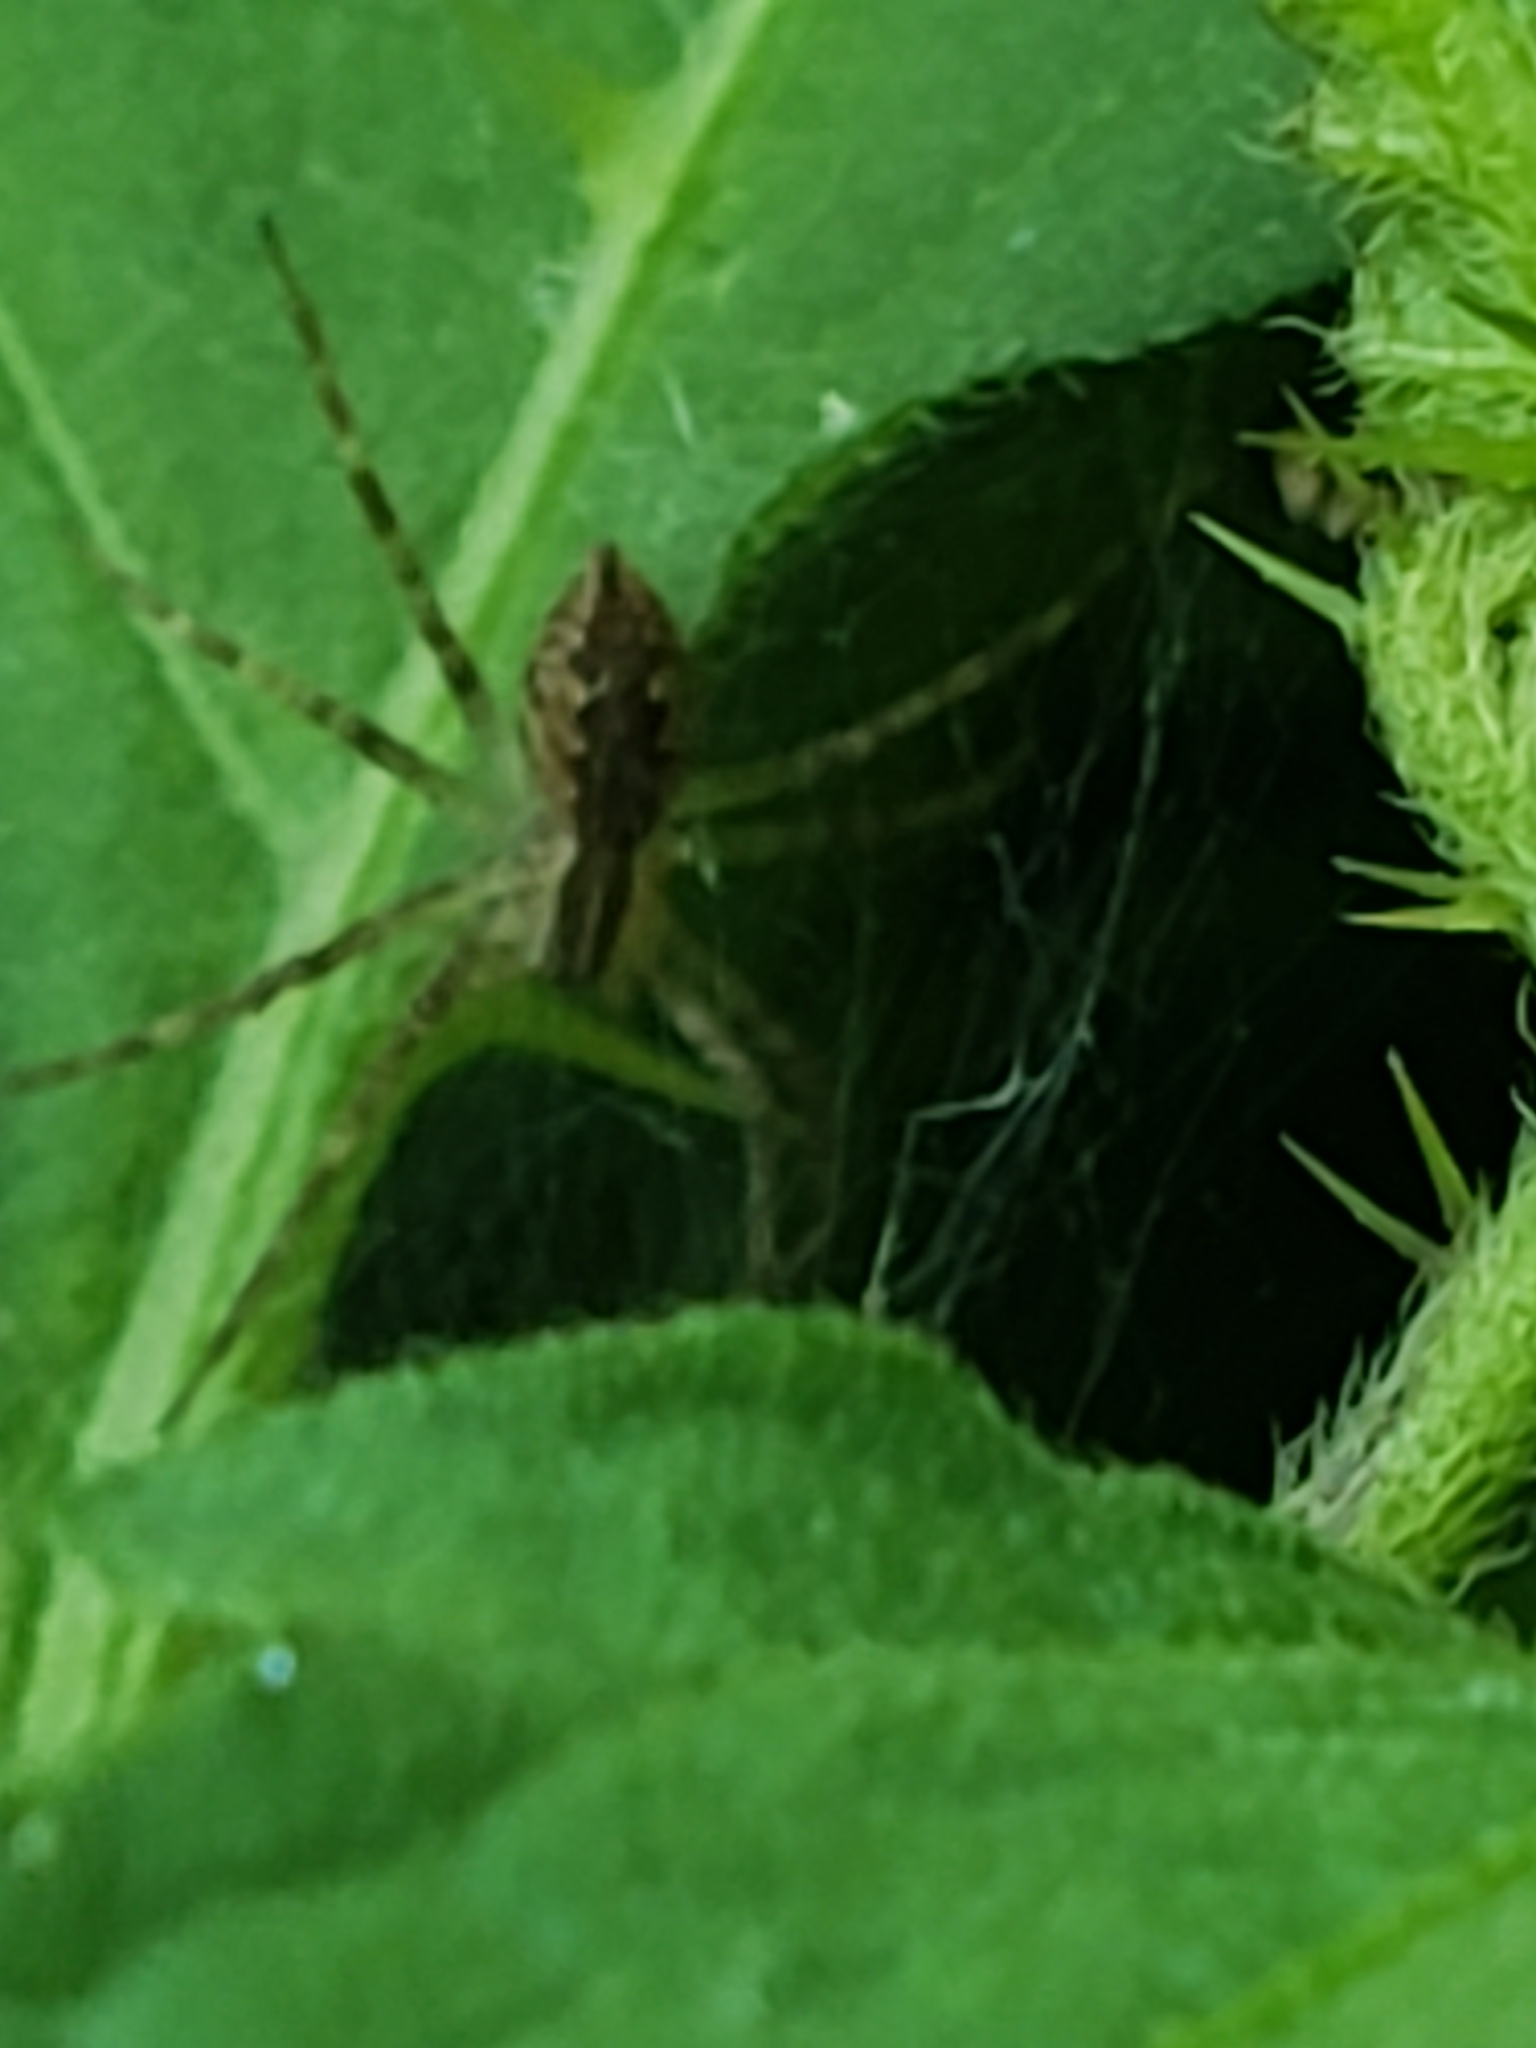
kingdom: Animalia
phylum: Arthropoda
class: Arachnida
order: Araneae
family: Pisauridae
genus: Pisaurina
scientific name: Pisaurina mira
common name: American nursery web spider
